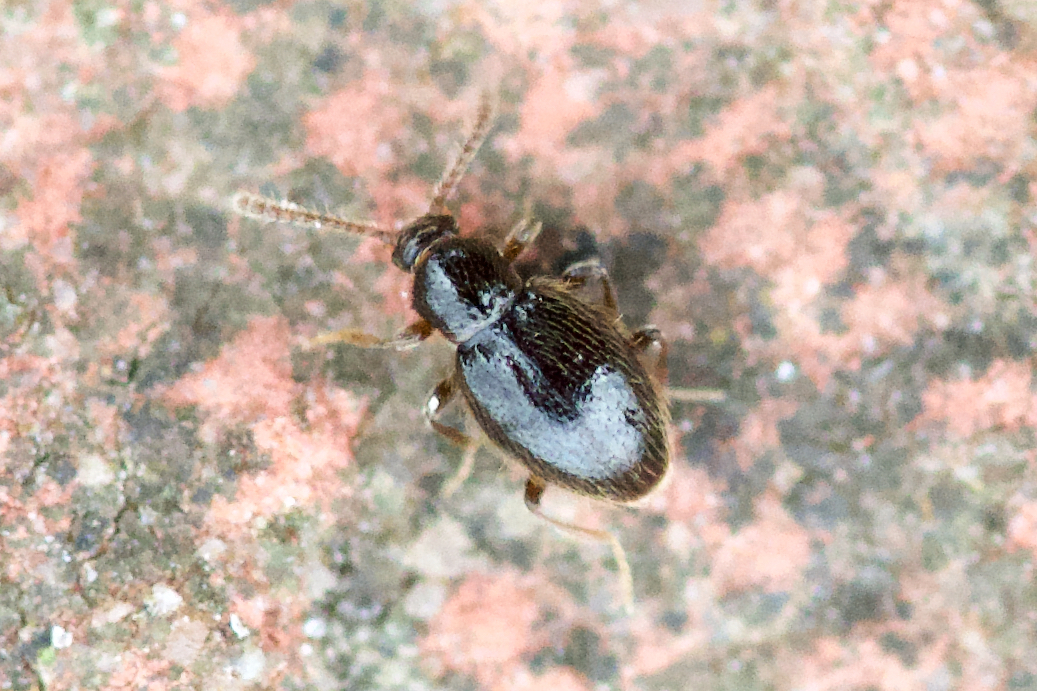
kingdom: Animalia
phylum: Arthropoda
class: Insecta
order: Coleoptera
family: Staphylinidae
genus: Parascydmus
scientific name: Parascydmus corpusculus
